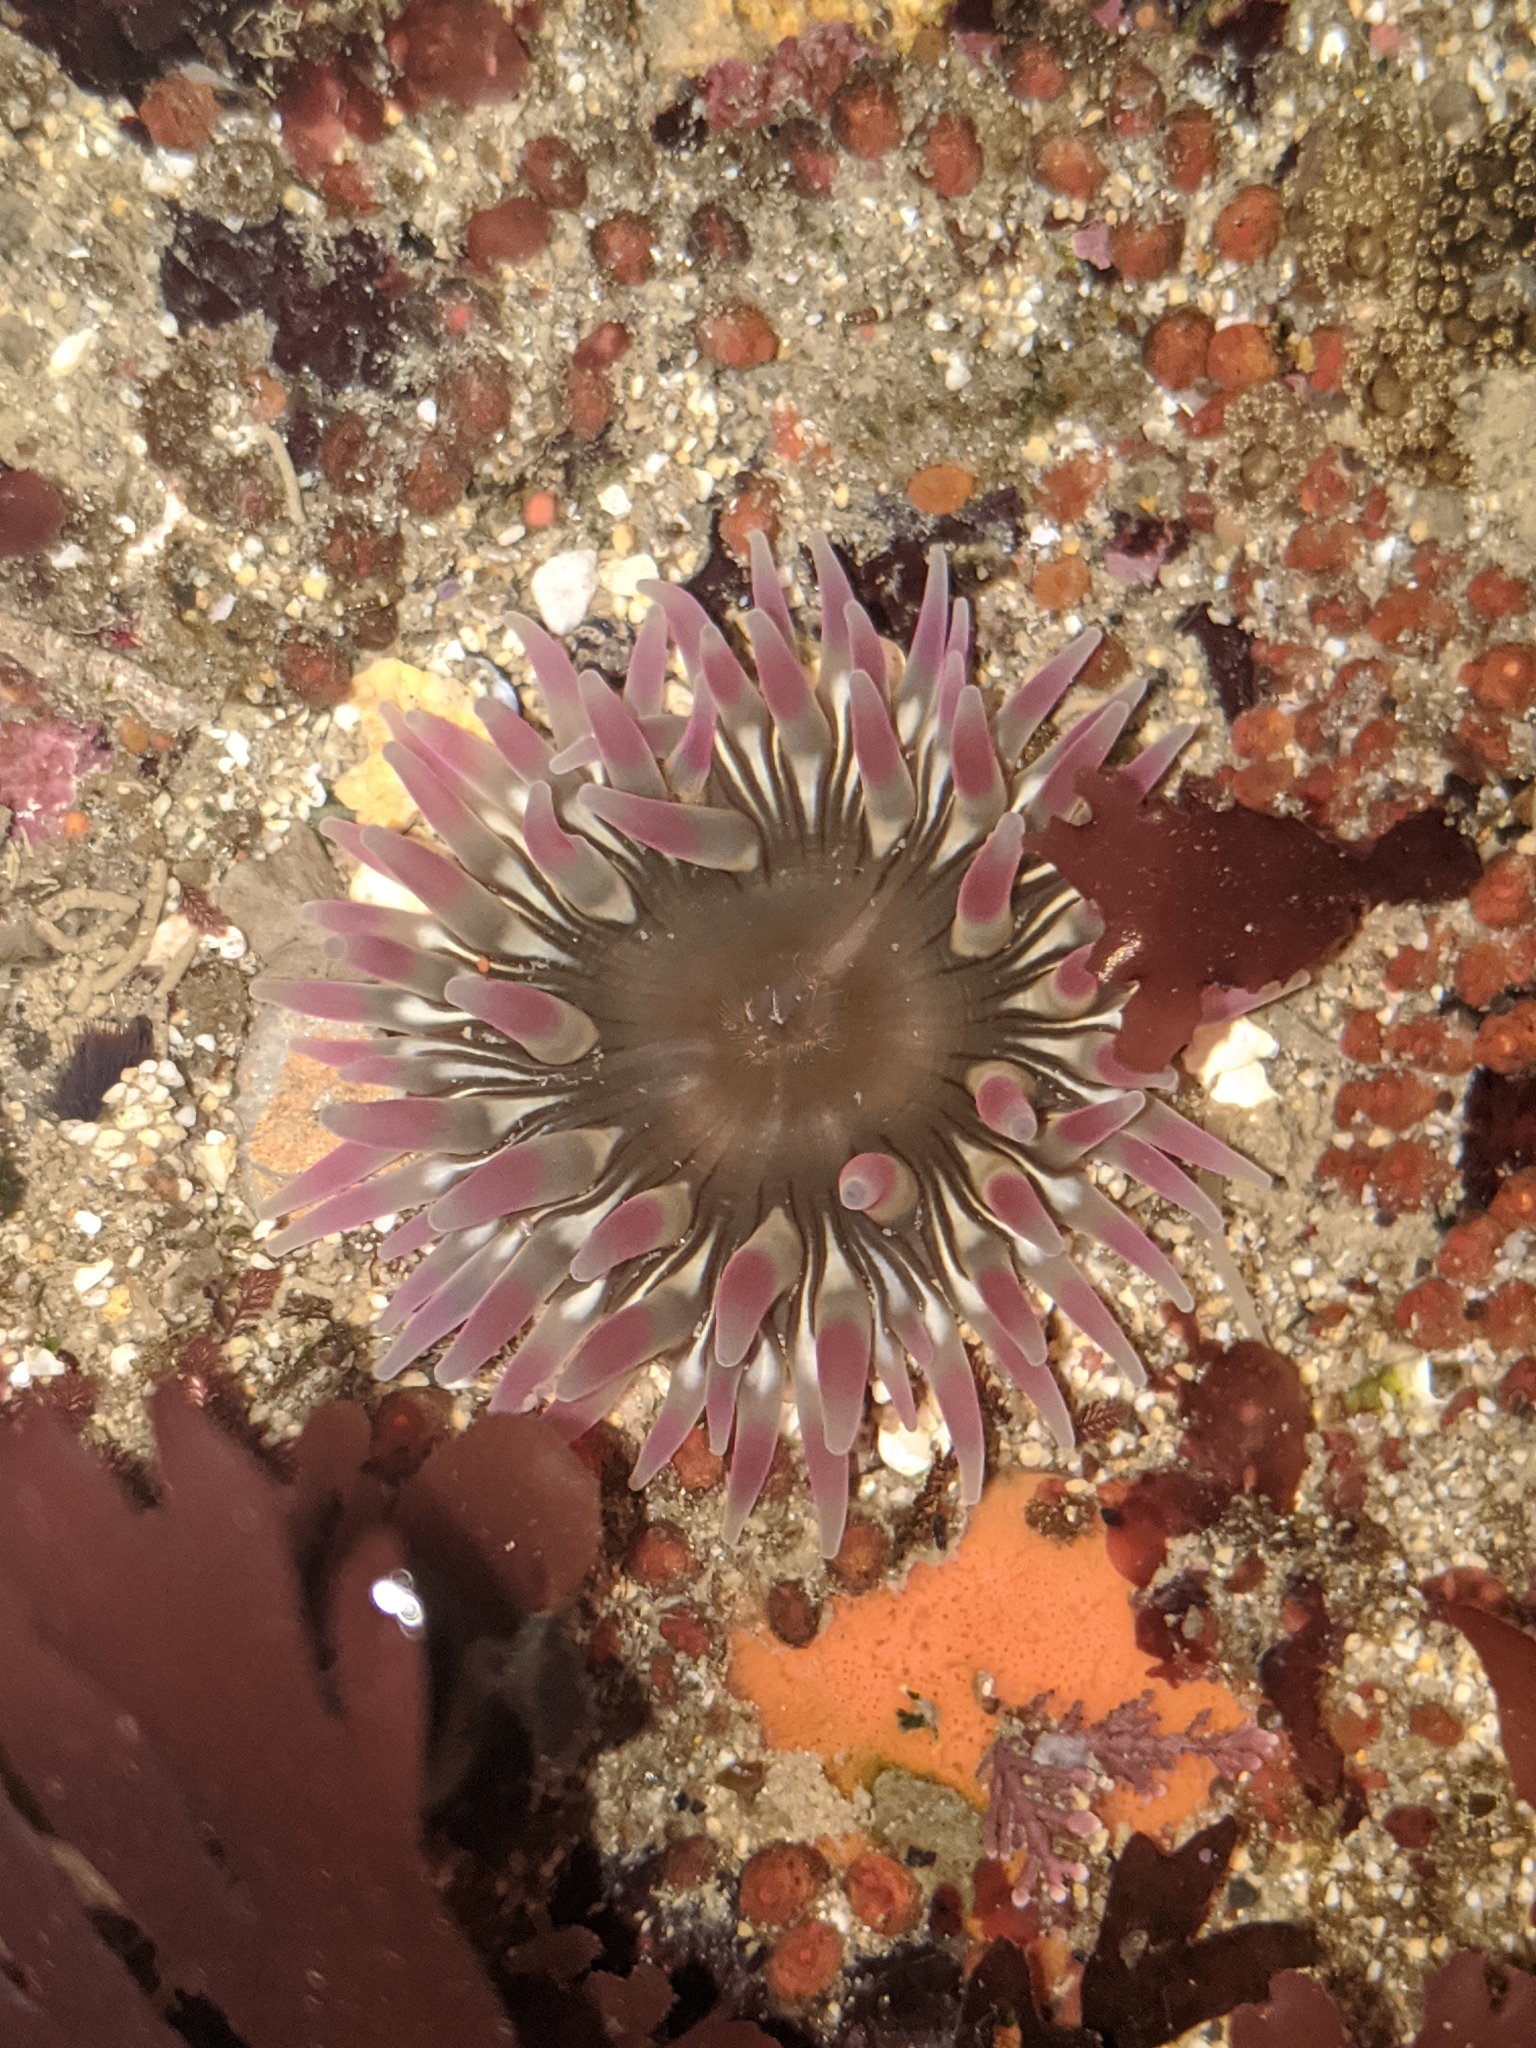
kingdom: Animalia
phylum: Cnidaria
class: Anthozoa
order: Actiniaria
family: Actiniidae
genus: Urticina
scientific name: Urticina clandestina
